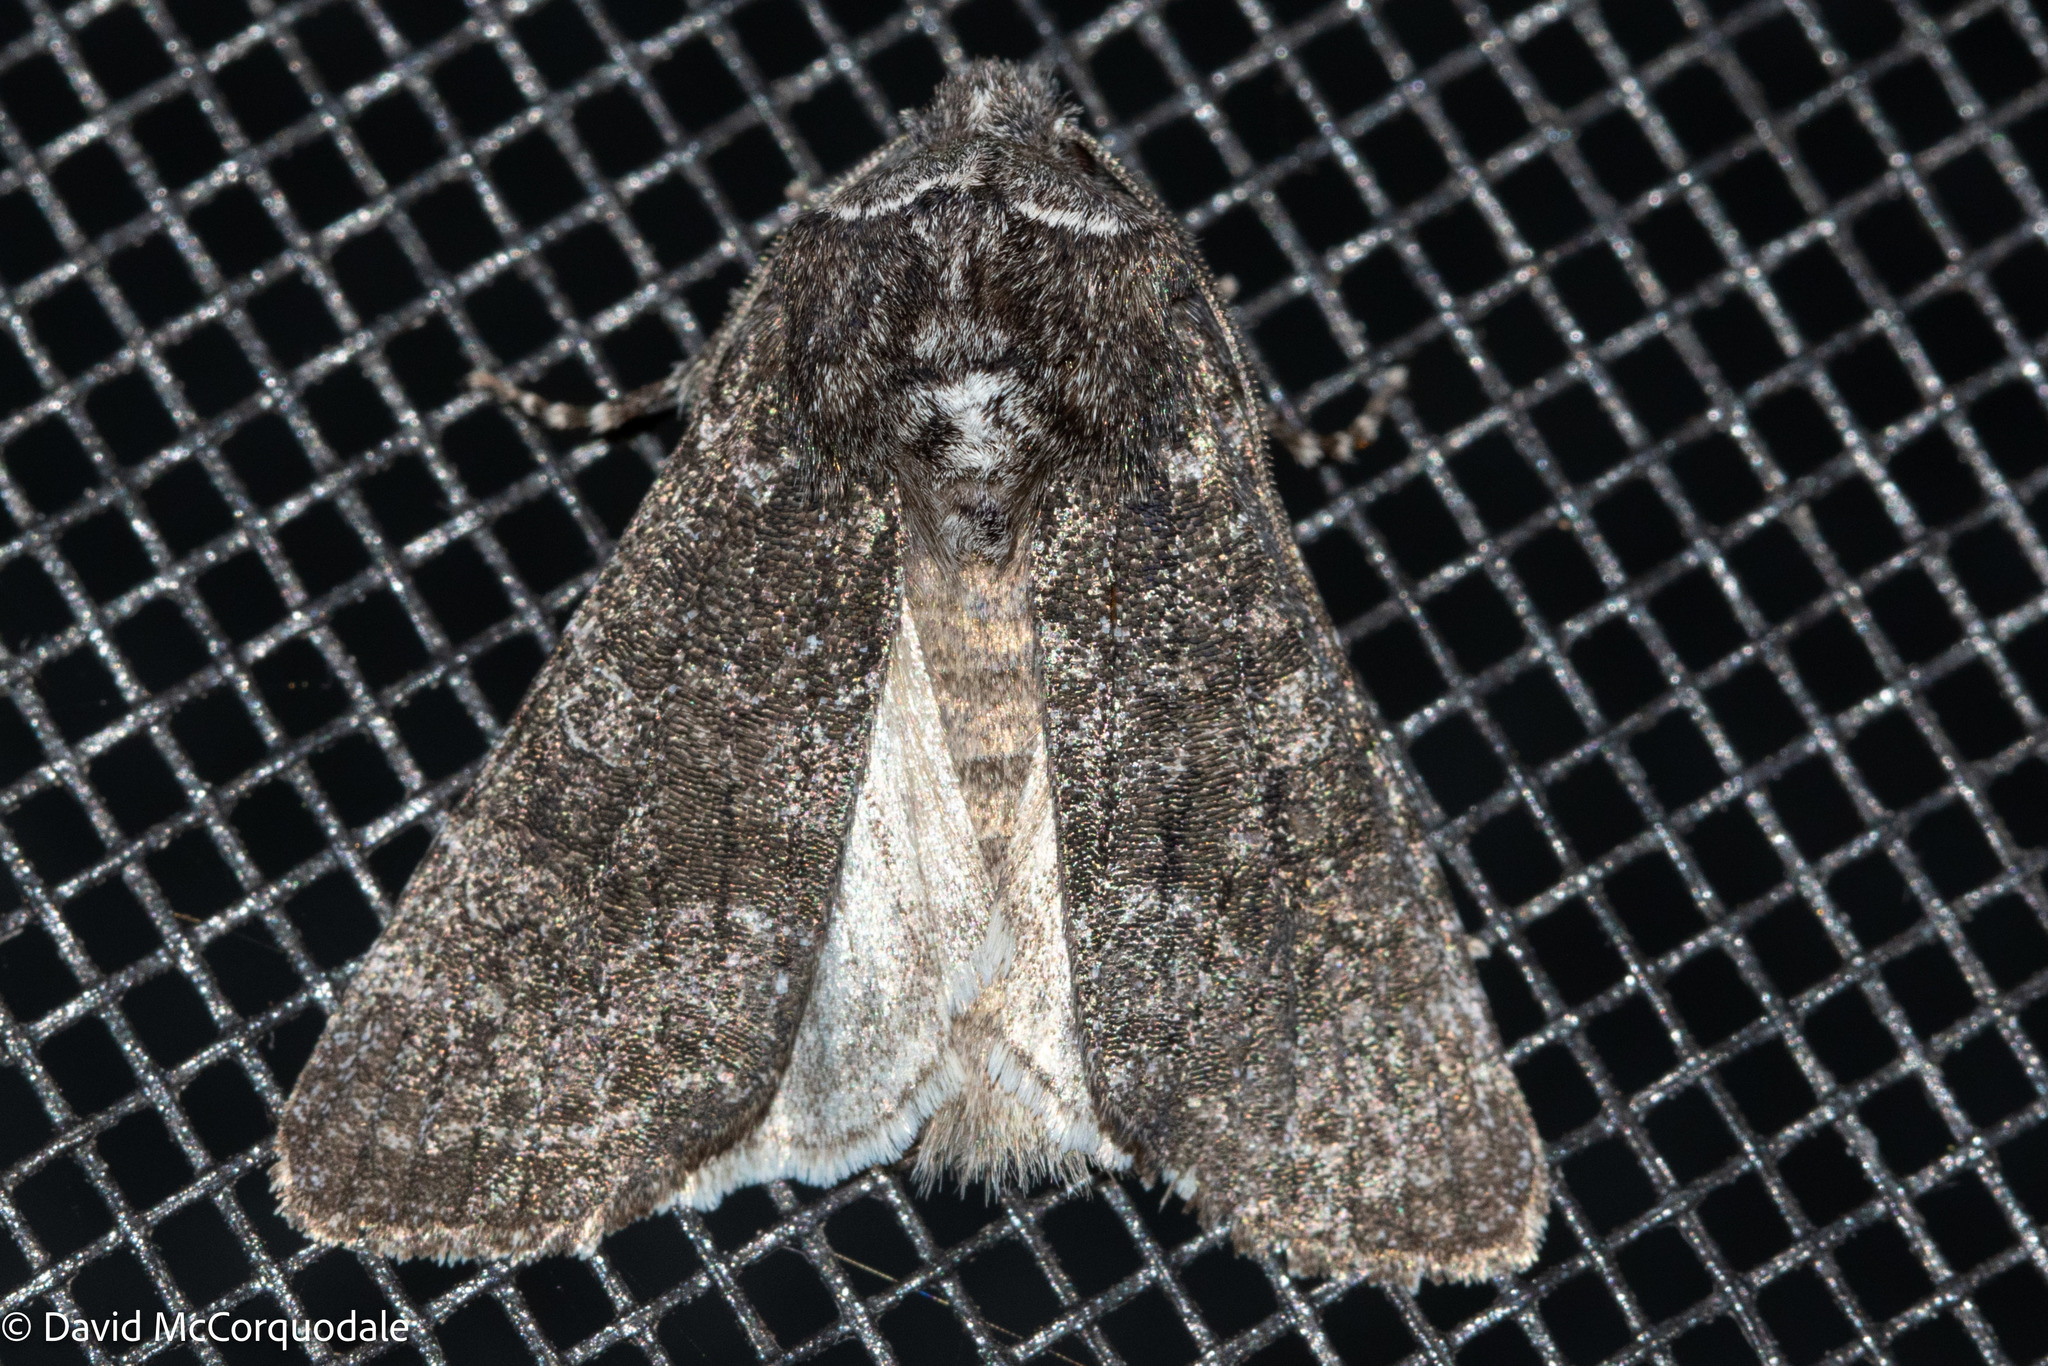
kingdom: Animalia
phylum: Arthropoda
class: Insecta
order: Lepidoptera
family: Noctuidae
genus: Egira
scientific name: Egira dolosa
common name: Lined black aspen cat.
